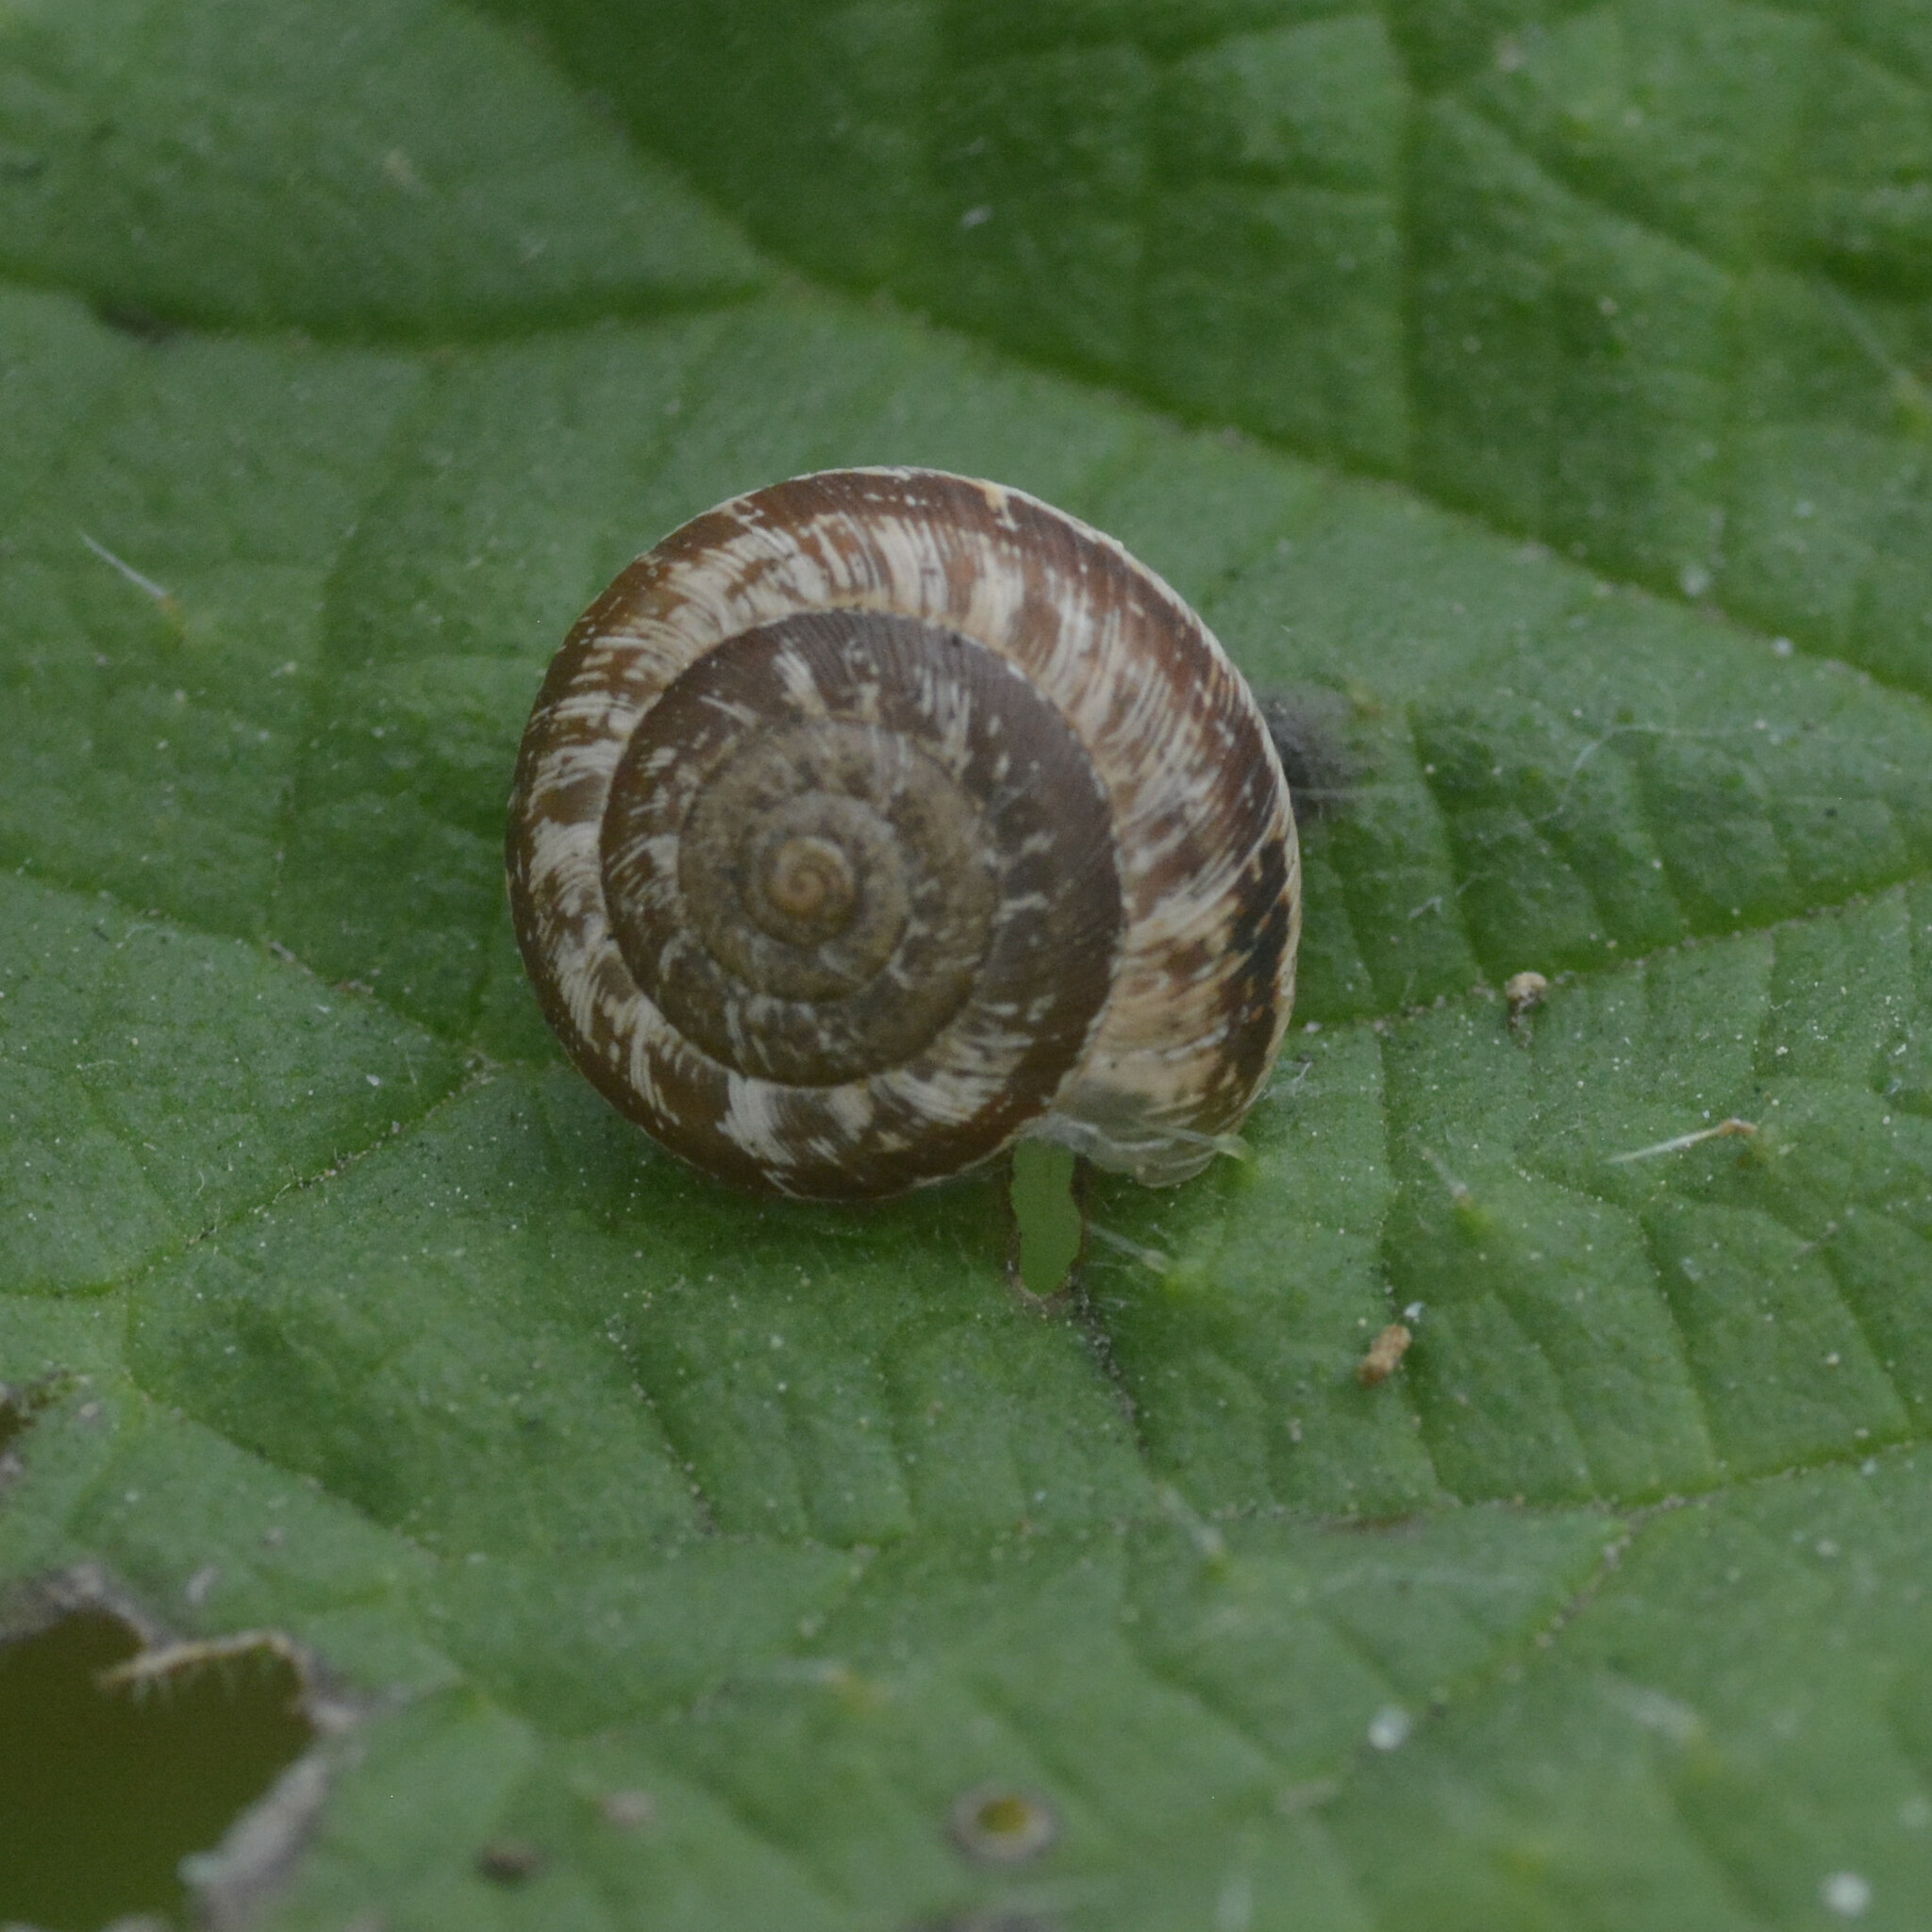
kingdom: Animalia
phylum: Mollusca
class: Gastropoda
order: Stylommatophora
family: Geomitridae
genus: Xeroplexa
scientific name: Xeroplexa intersecta
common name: Wrinkled snail
